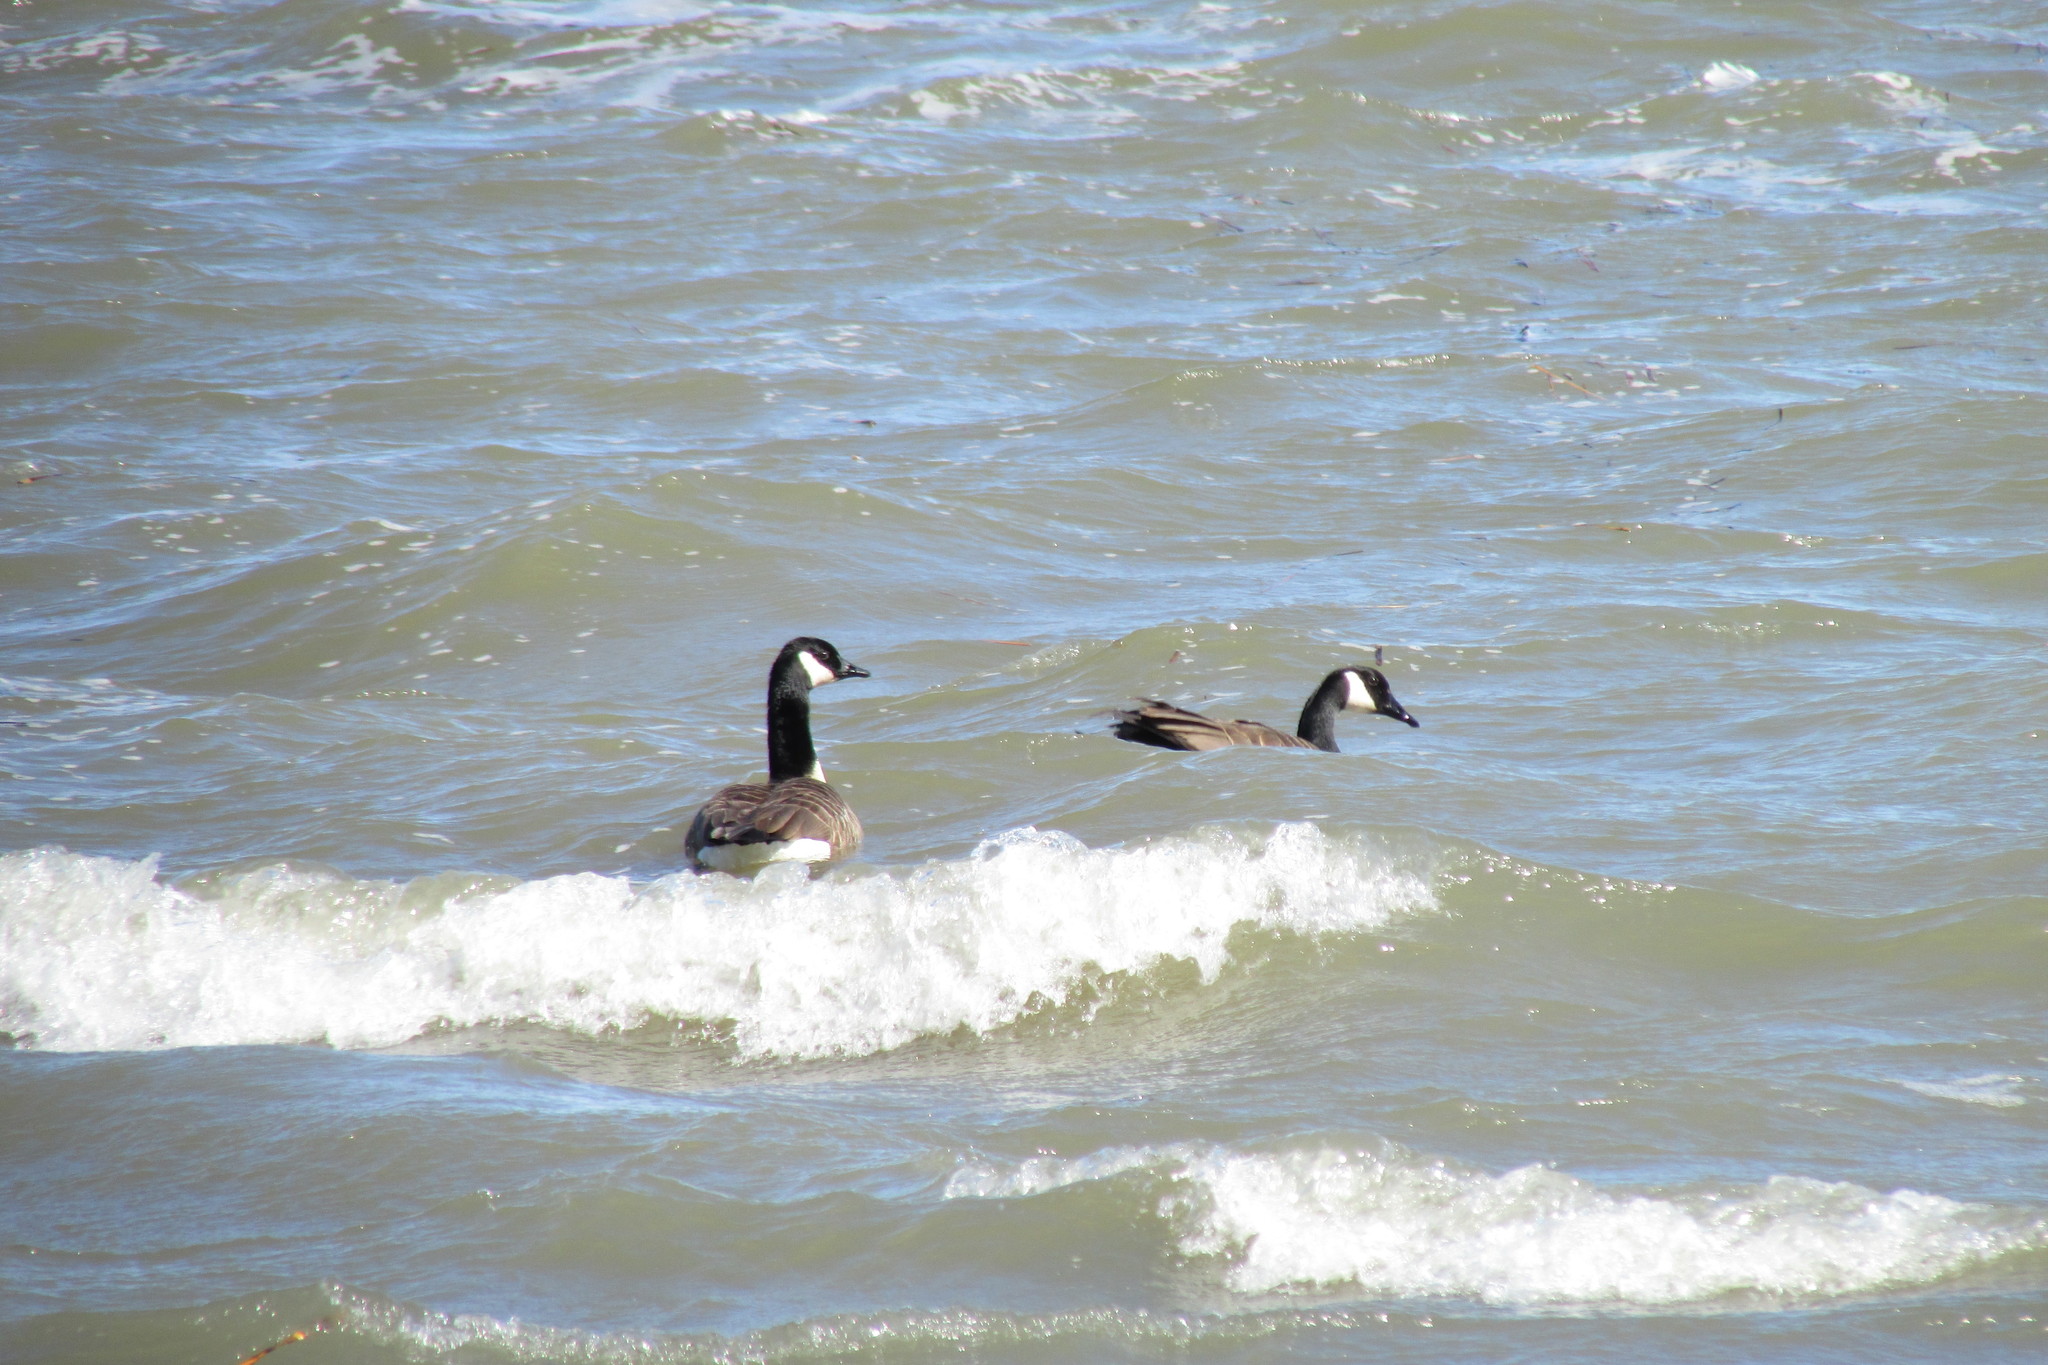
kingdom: Animalia
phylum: Chordata
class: Aves
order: Anseriformes
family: Anatidae
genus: Branta
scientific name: Branta canadensis
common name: Canada goose
